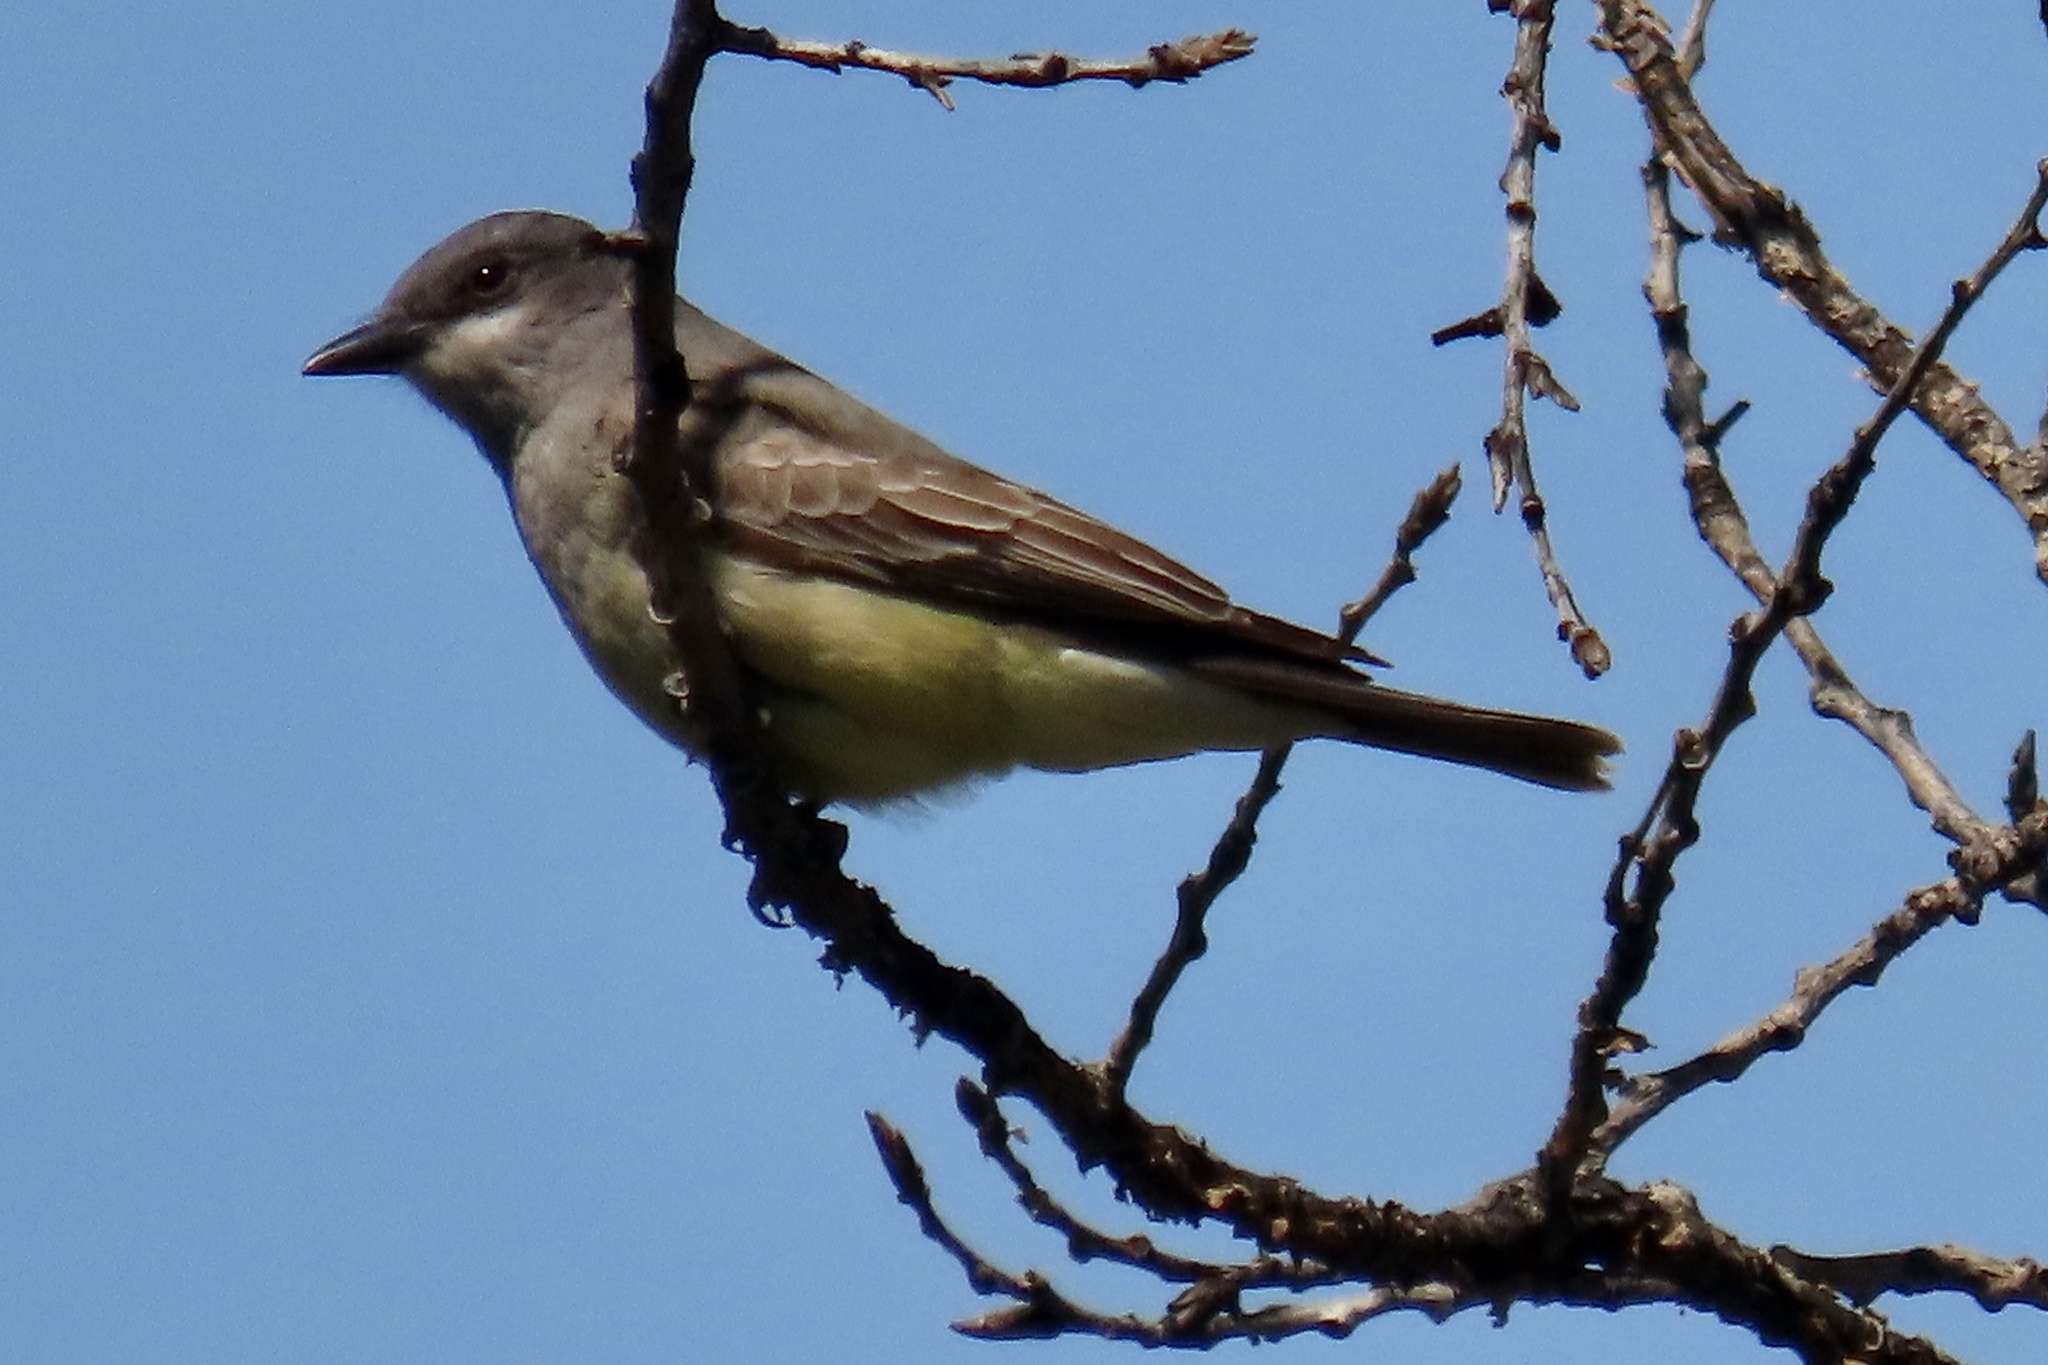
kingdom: Animalia
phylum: Chordata
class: Aves
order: Passeriformes
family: Tyrannidae
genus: Tyrannus
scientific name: Tyrannus vociferans
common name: Cassin's kingbird
